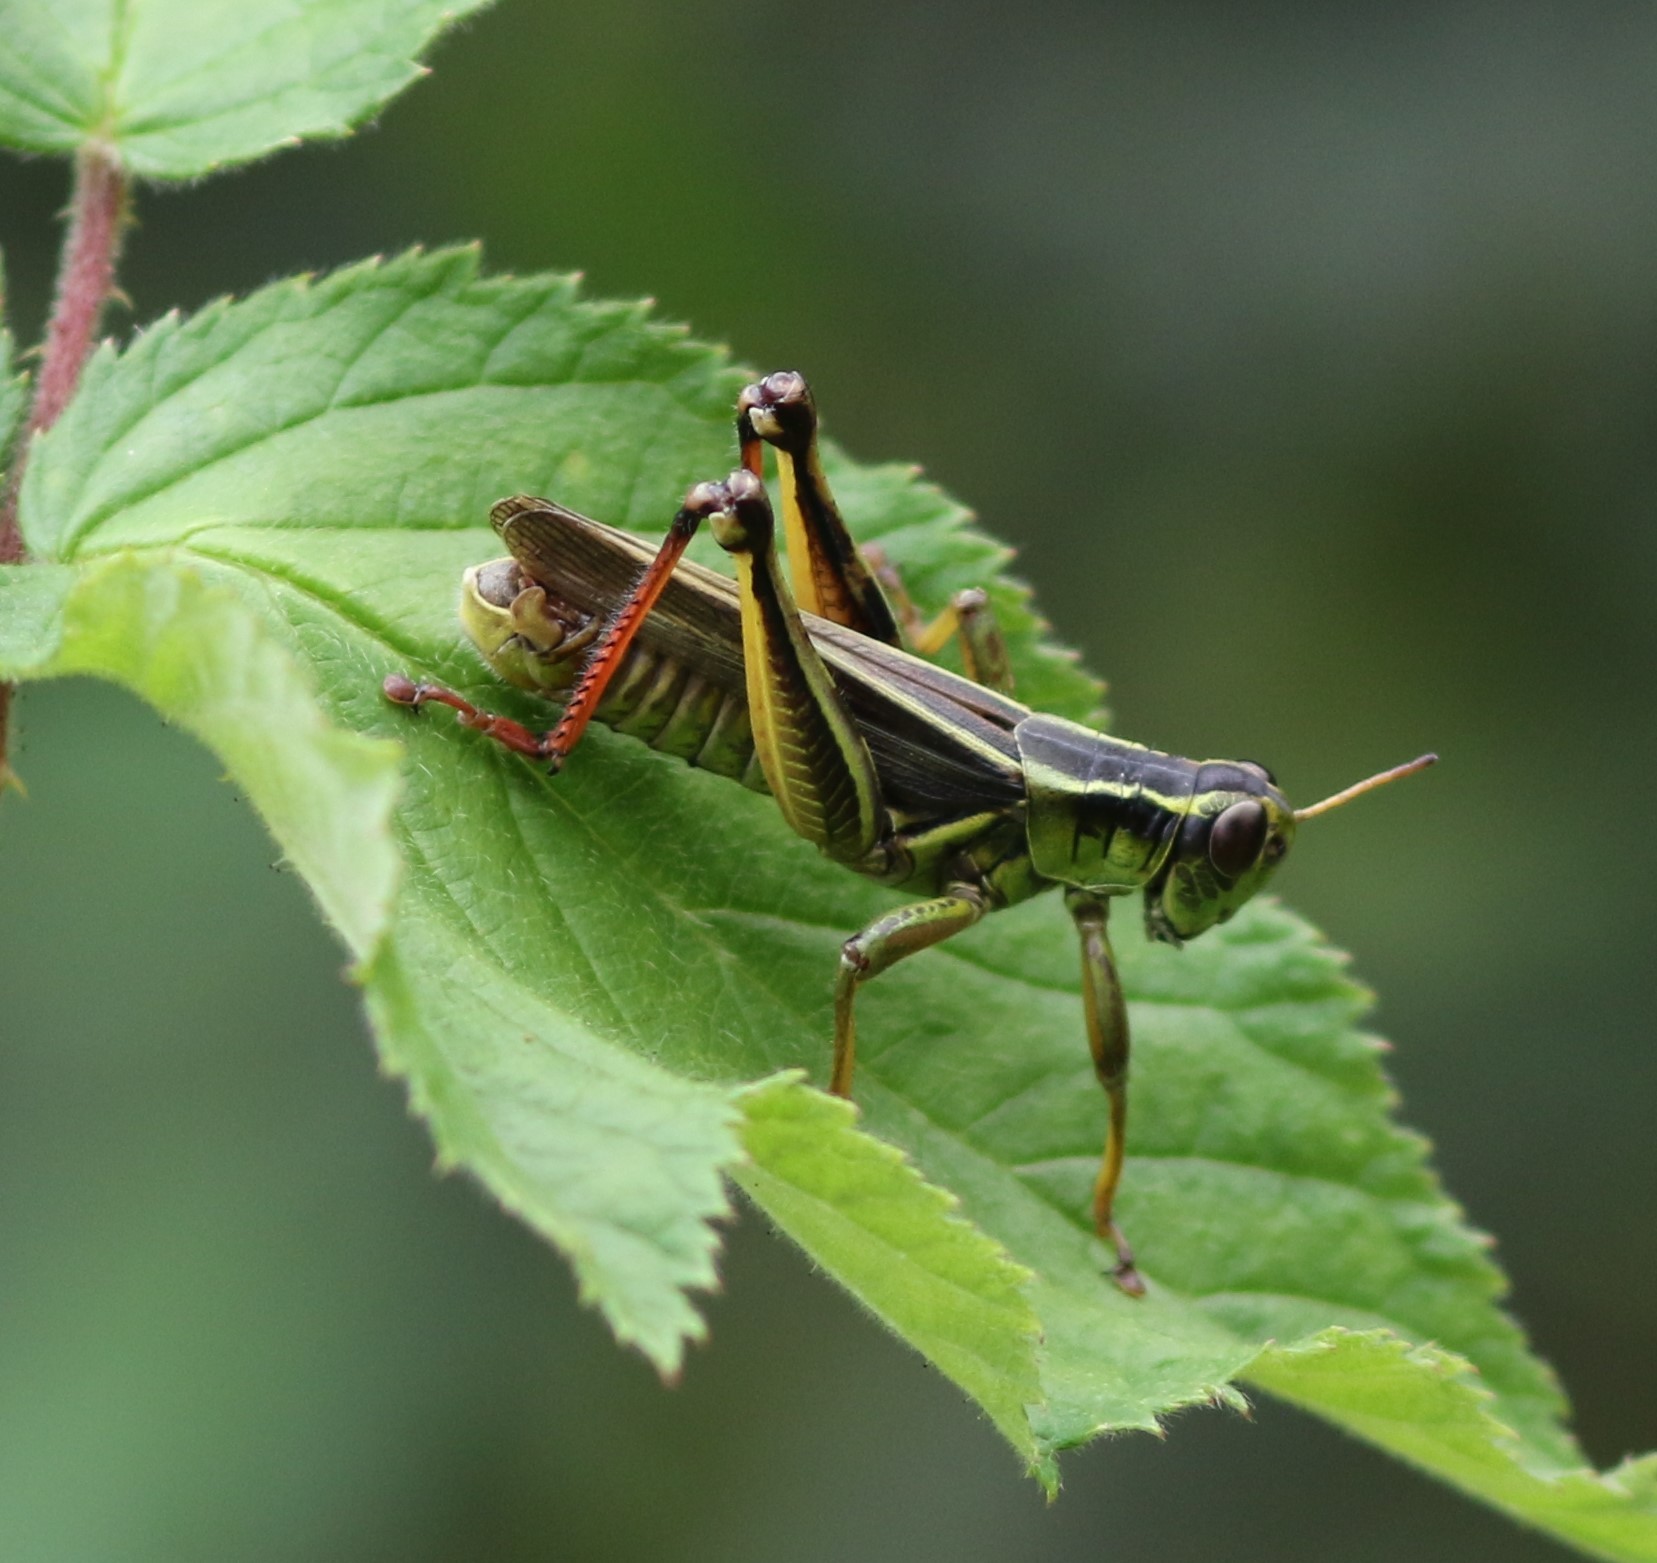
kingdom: Animalia
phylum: Arthropoda
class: Insecta
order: Orthoptera
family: Acrididae
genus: Melanoplus
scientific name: Melanoplus bivittatus
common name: Two-striped grasshopper
